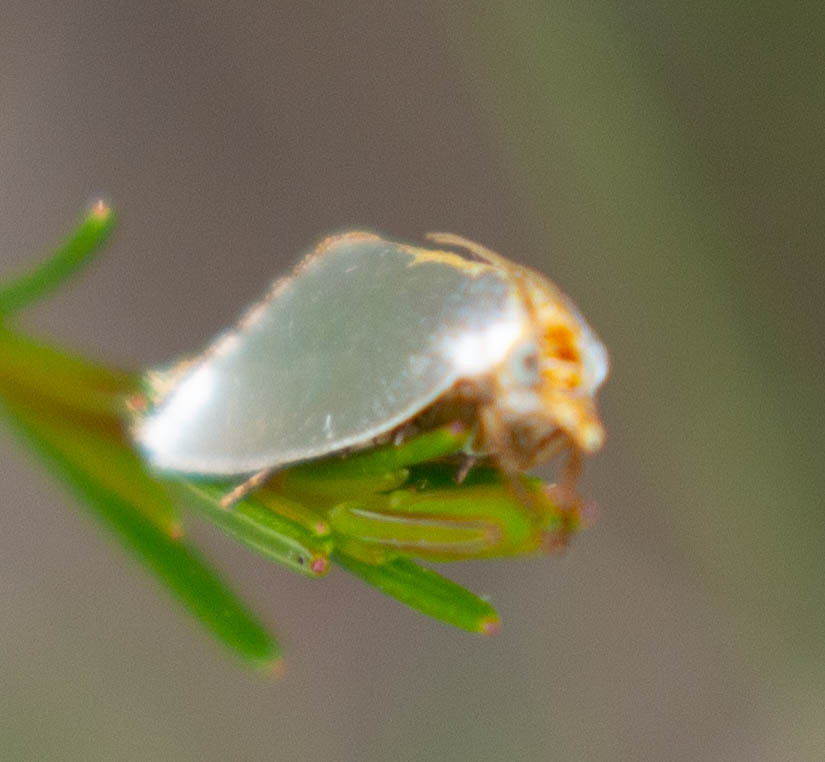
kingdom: Animalia
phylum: Arthropoda
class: Insecta
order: Lepidoptera
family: Crambidae
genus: Argyria
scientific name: Argyria
